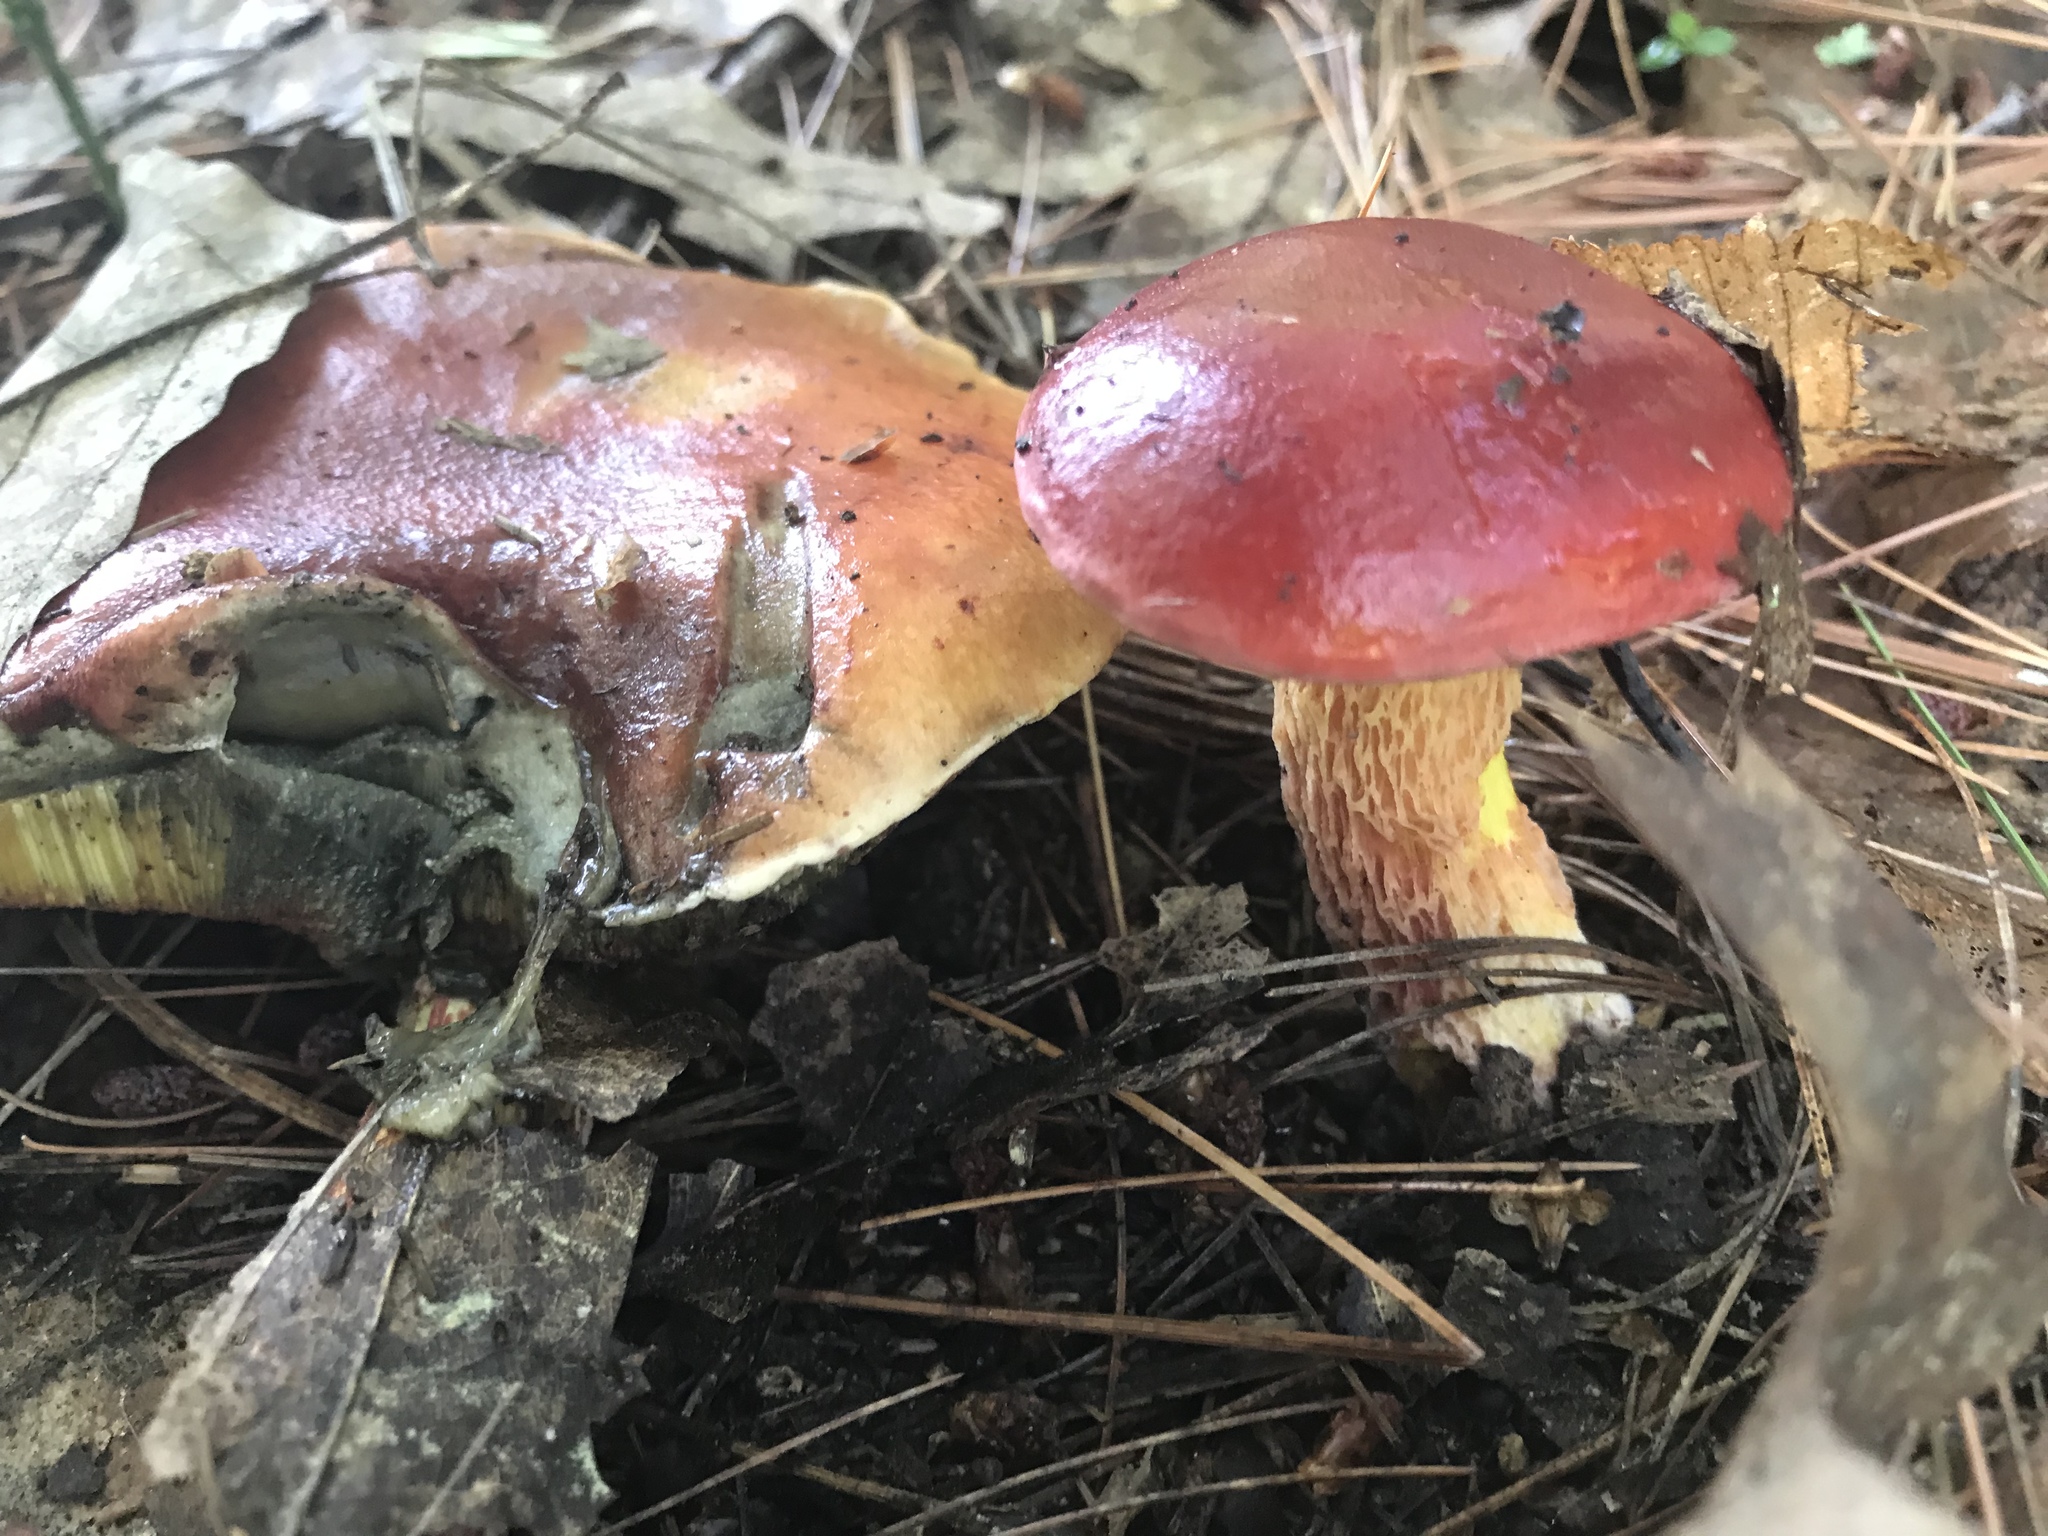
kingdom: Fungi
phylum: Basidiomycota
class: Agaricomycetes
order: Boletales
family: Boletaceae
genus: Butyriboletus
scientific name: Butyriboletus frostii
